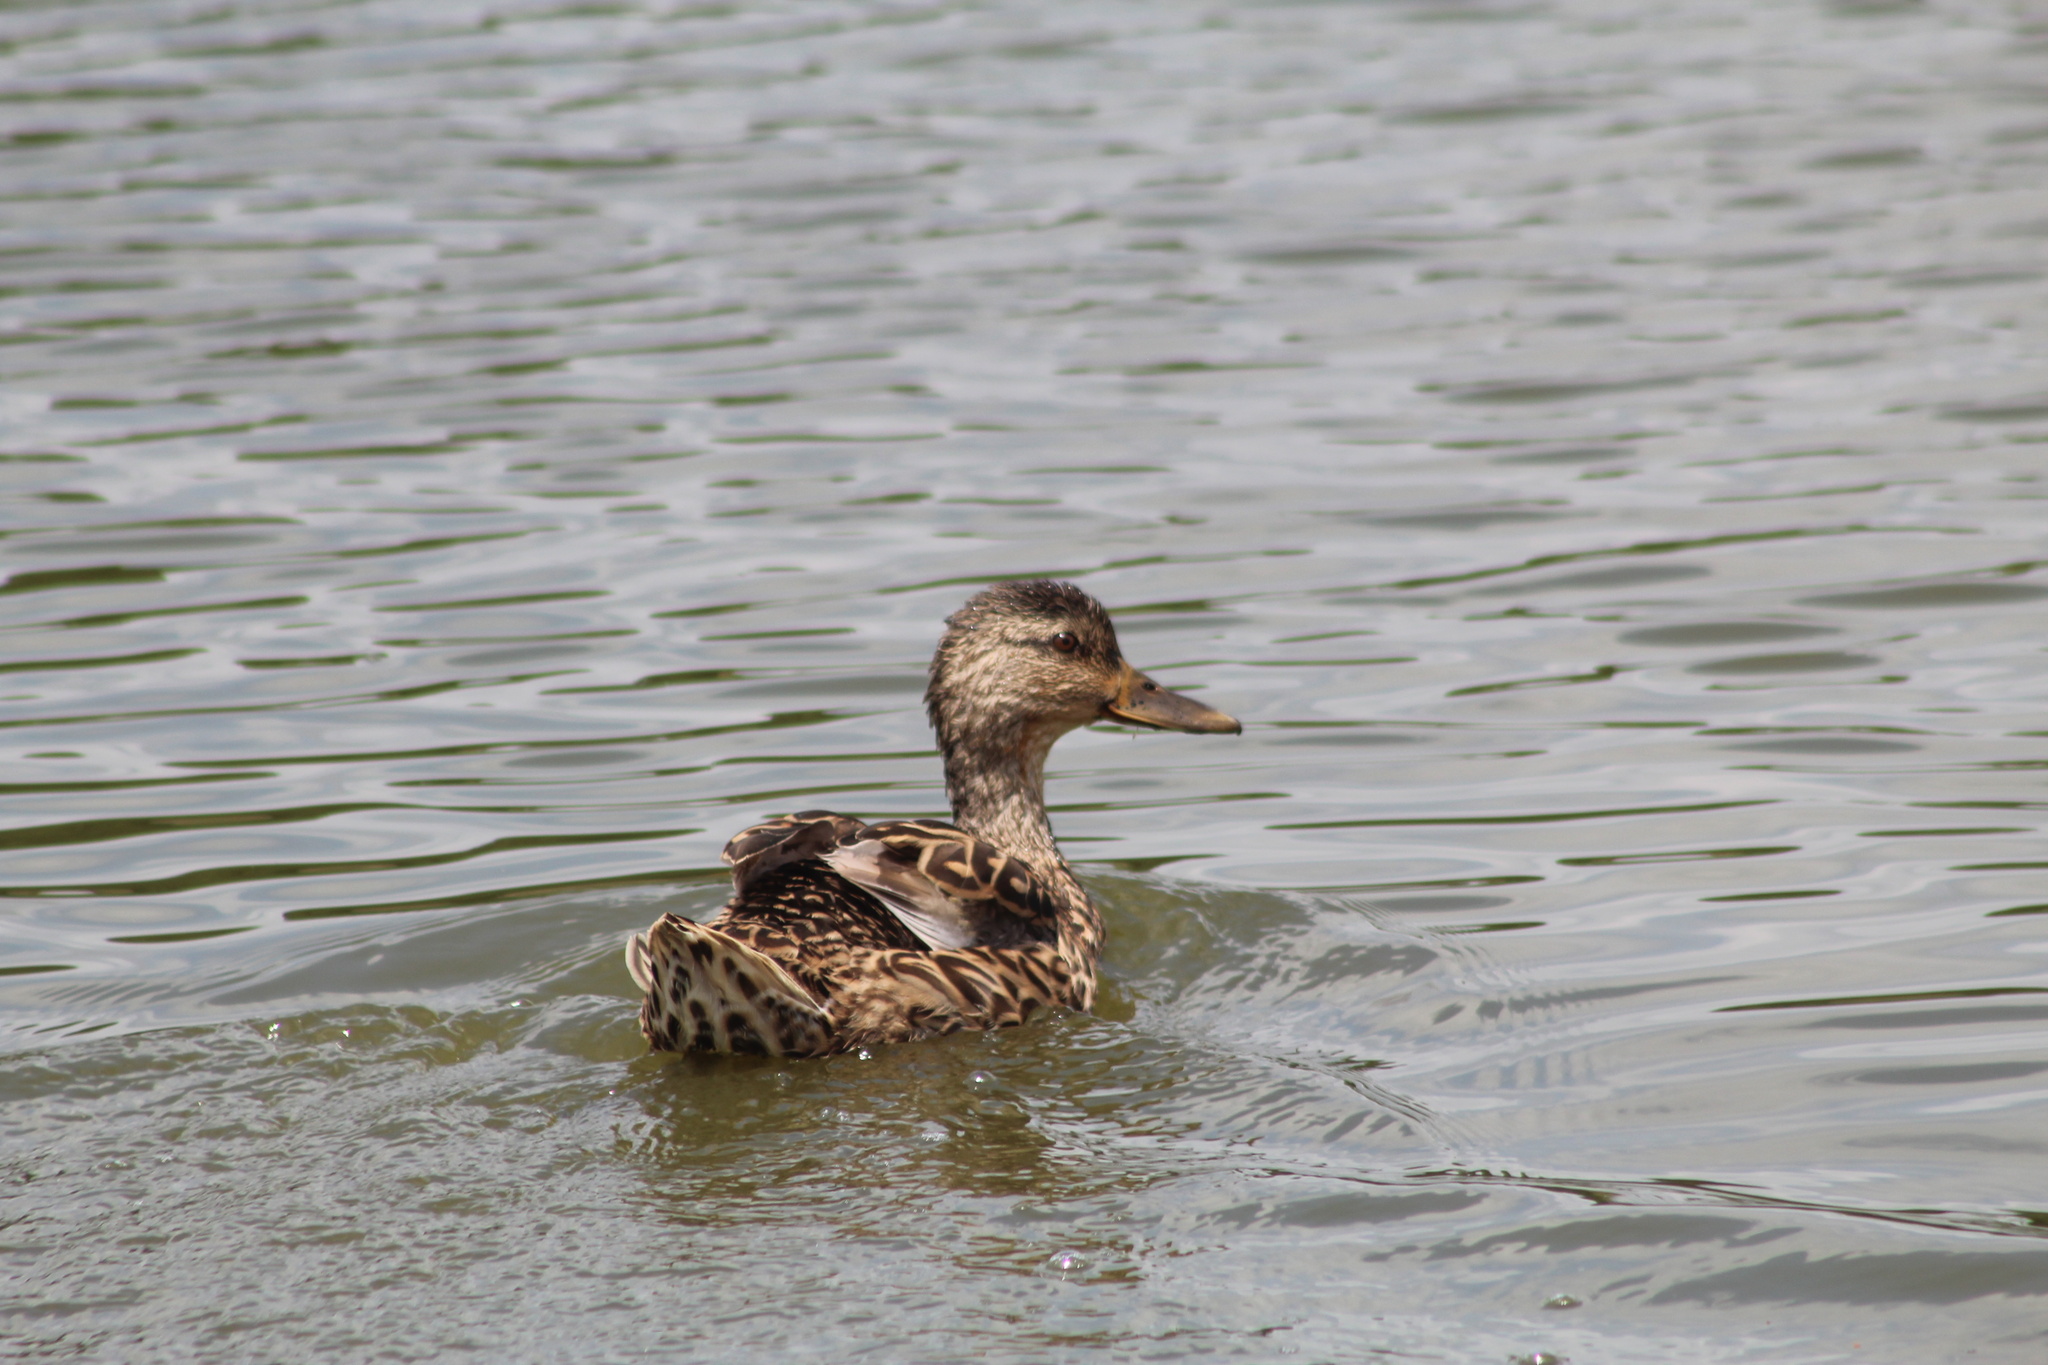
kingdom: Animalia
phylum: Chordata
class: Aves
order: Anseriformes
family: Anatidae
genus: Anas
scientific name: Anas platyrhynchos
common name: Mallard
